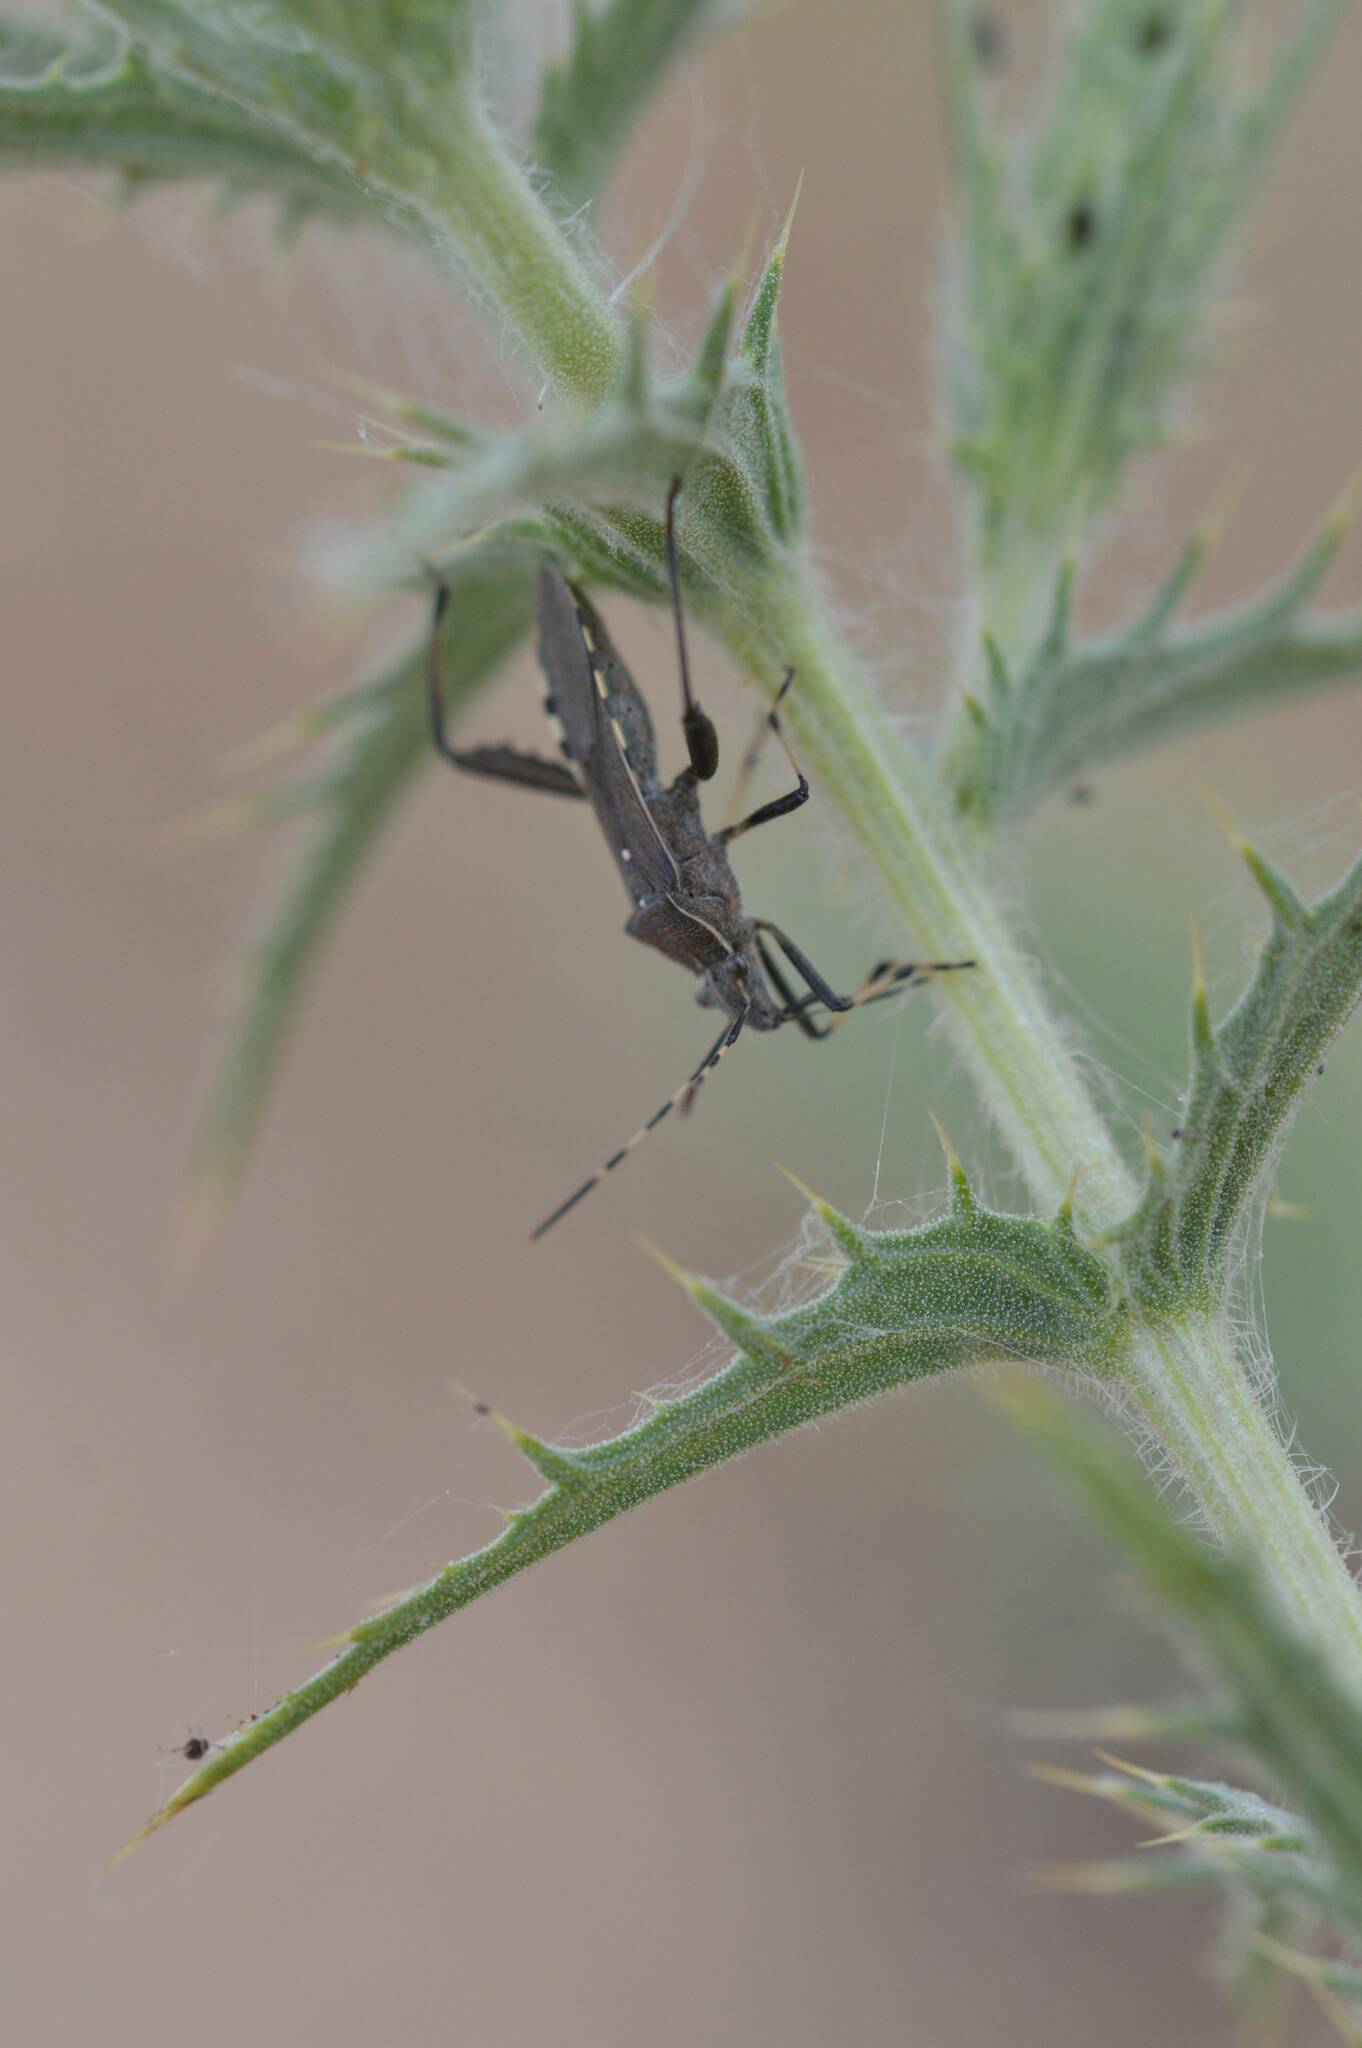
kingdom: Animalia
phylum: Arthropoda
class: Insecta
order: Hemiptera
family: Alydidae
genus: Camptopus
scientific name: Camptopus lateralis
